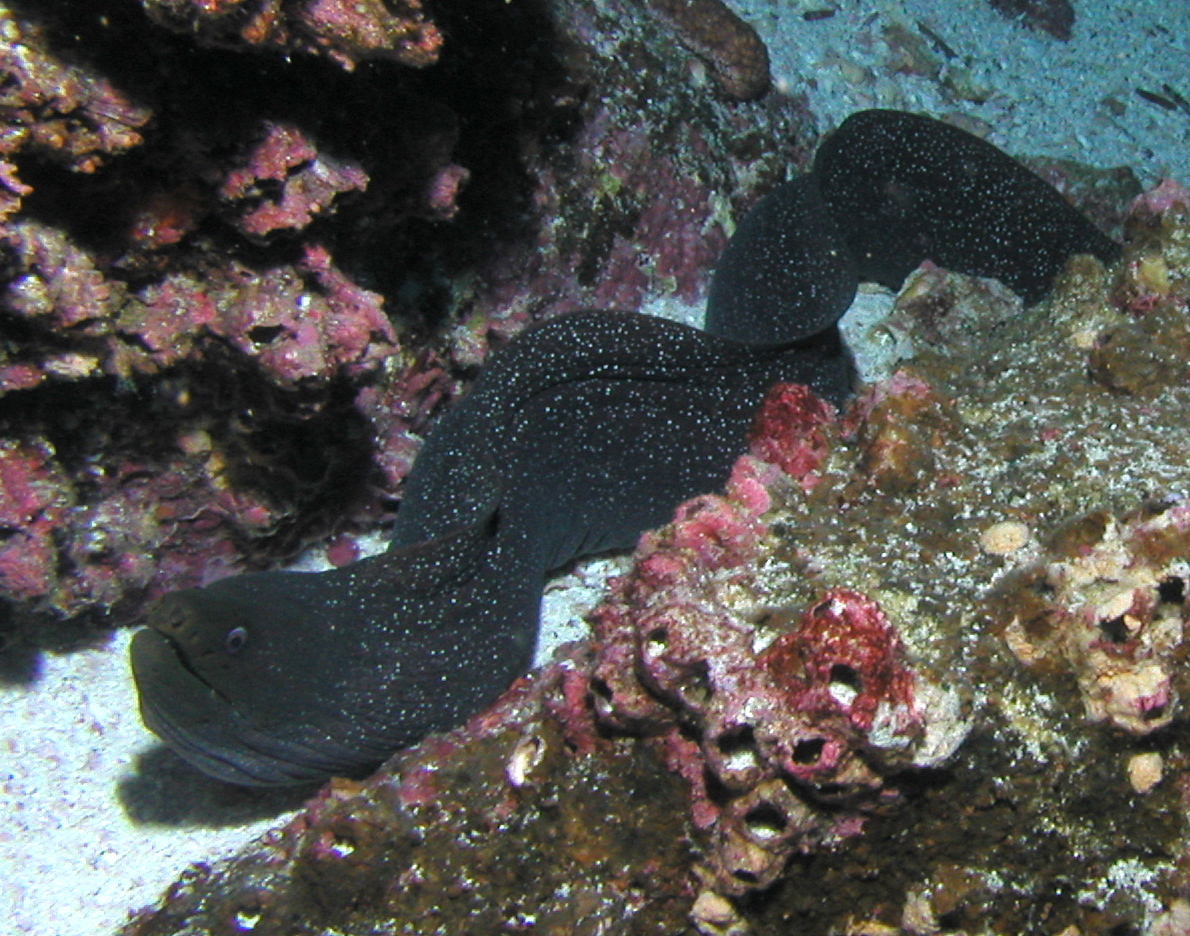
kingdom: Animalia
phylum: Chordata
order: Anguilliformes
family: Muraenidae
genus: Gymnothorax
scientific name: Gymnothorax dovii
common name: Finespotted moray
